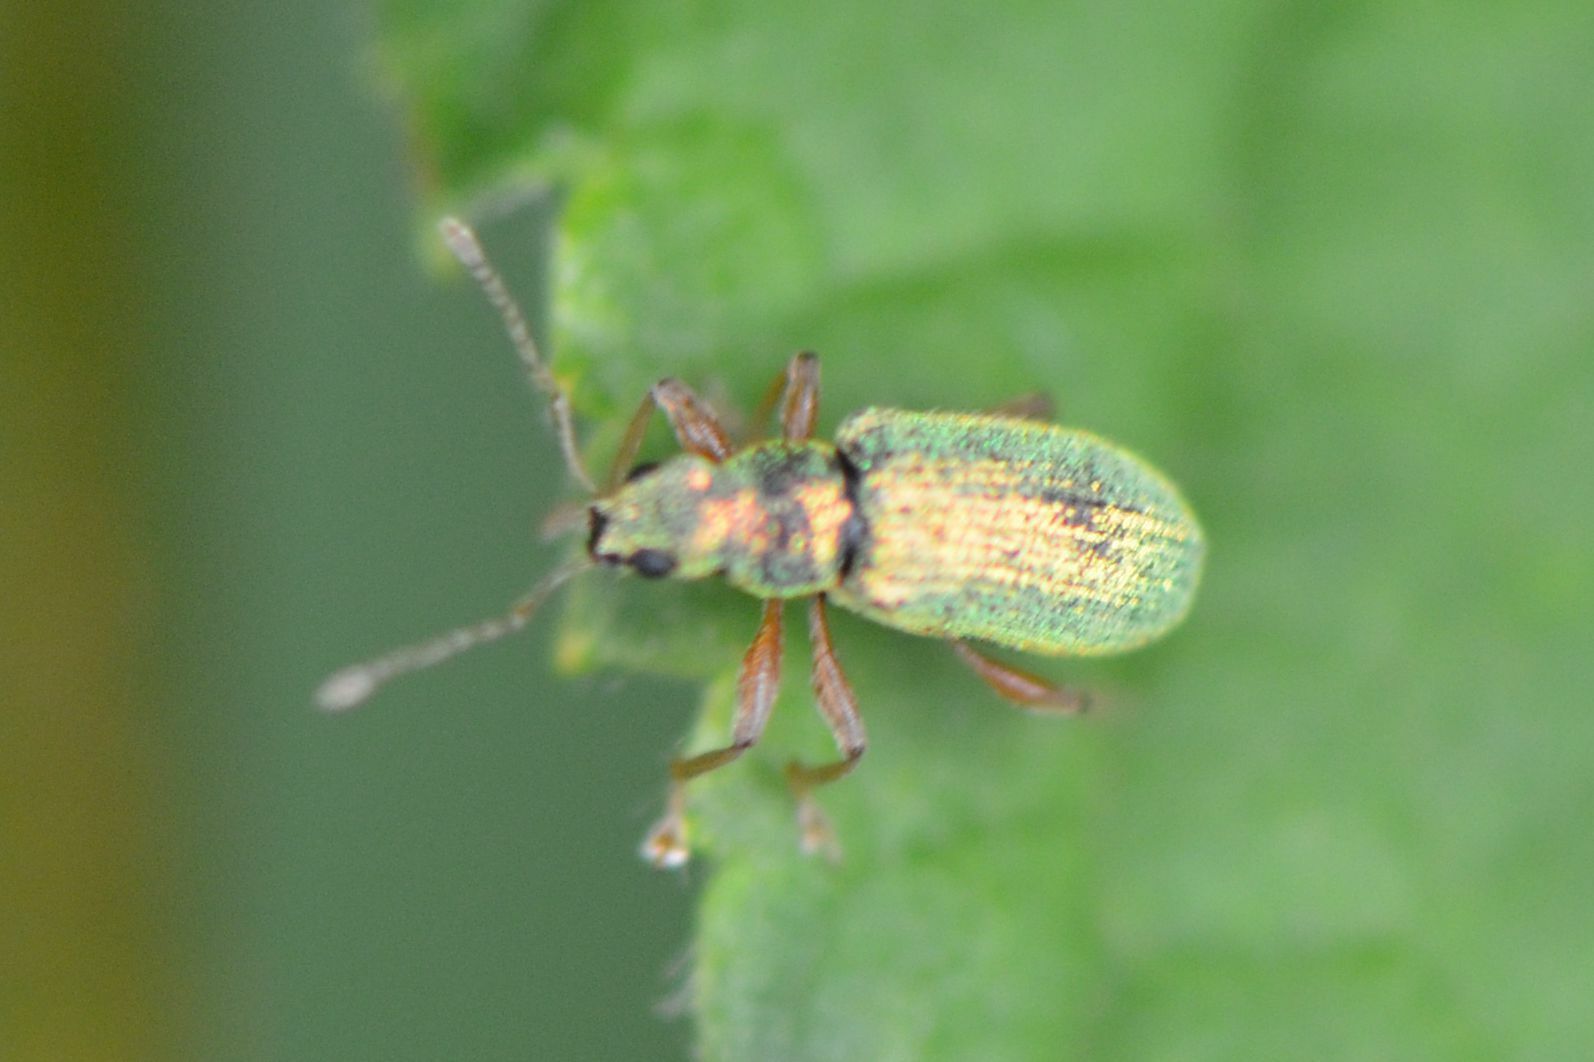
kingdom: Animalia
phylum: Arthropoda
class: Insecta
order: Coleoptera
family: Curculionidae
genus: Polydrusus
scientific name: Polydrusus pterygomalis
